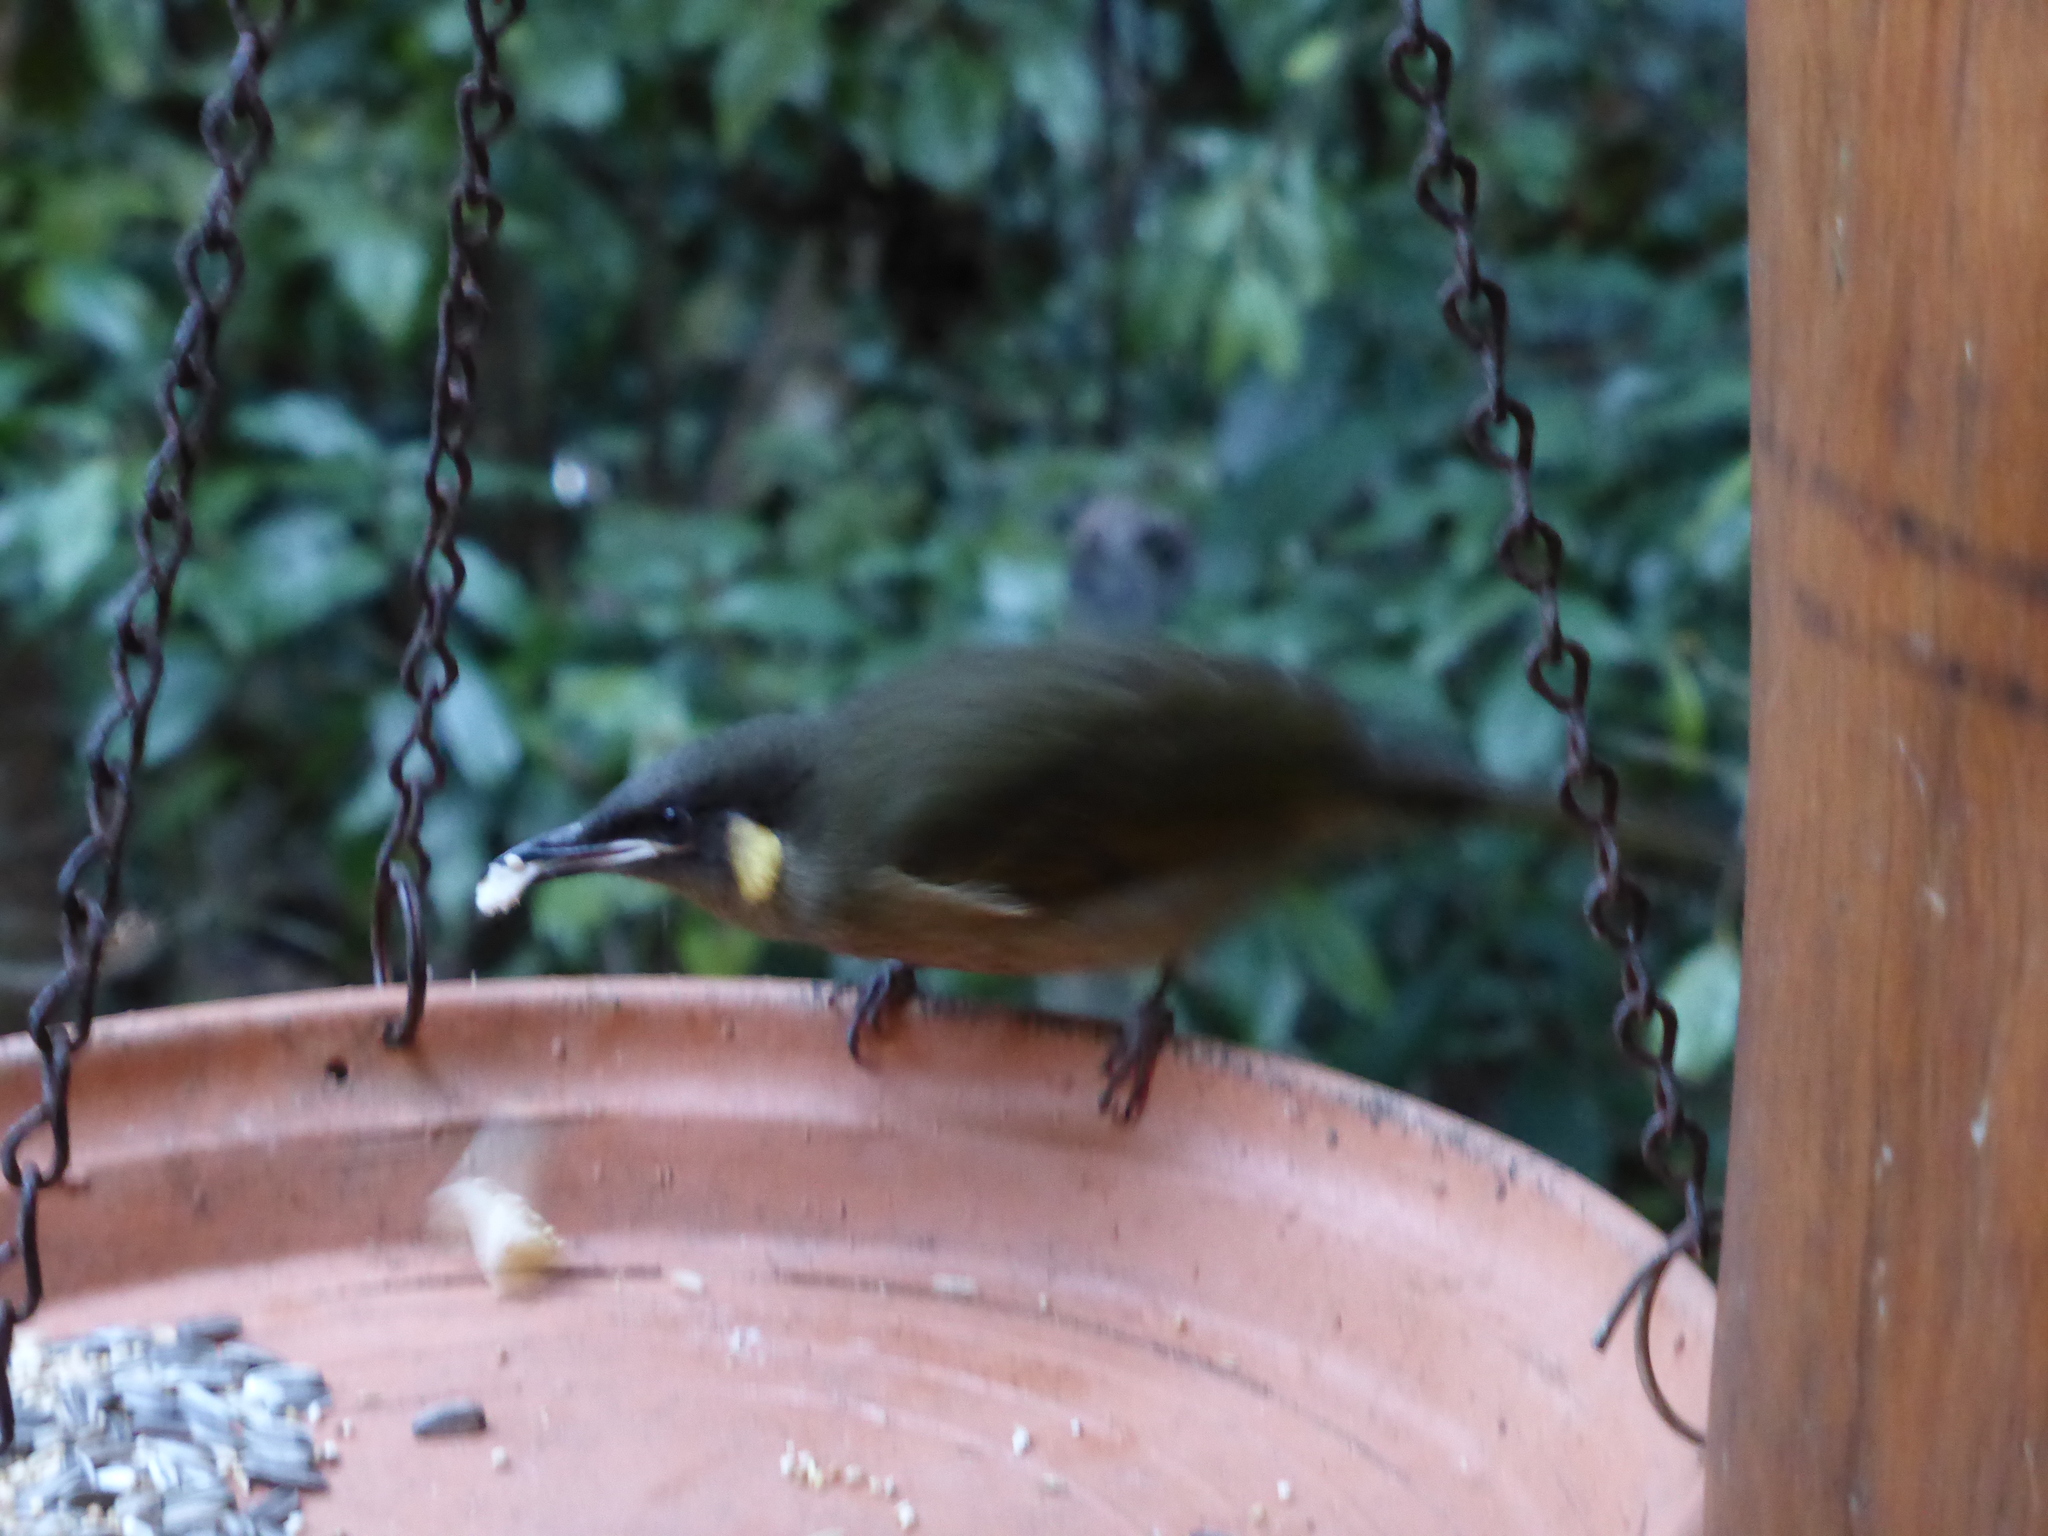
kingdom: Animalia
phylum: Chordata
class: Aves
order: Passeriformes
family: Meliphagidae
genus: Meliphaga
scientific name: Meliphaga lewinii
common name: Lewin's honeyeater
